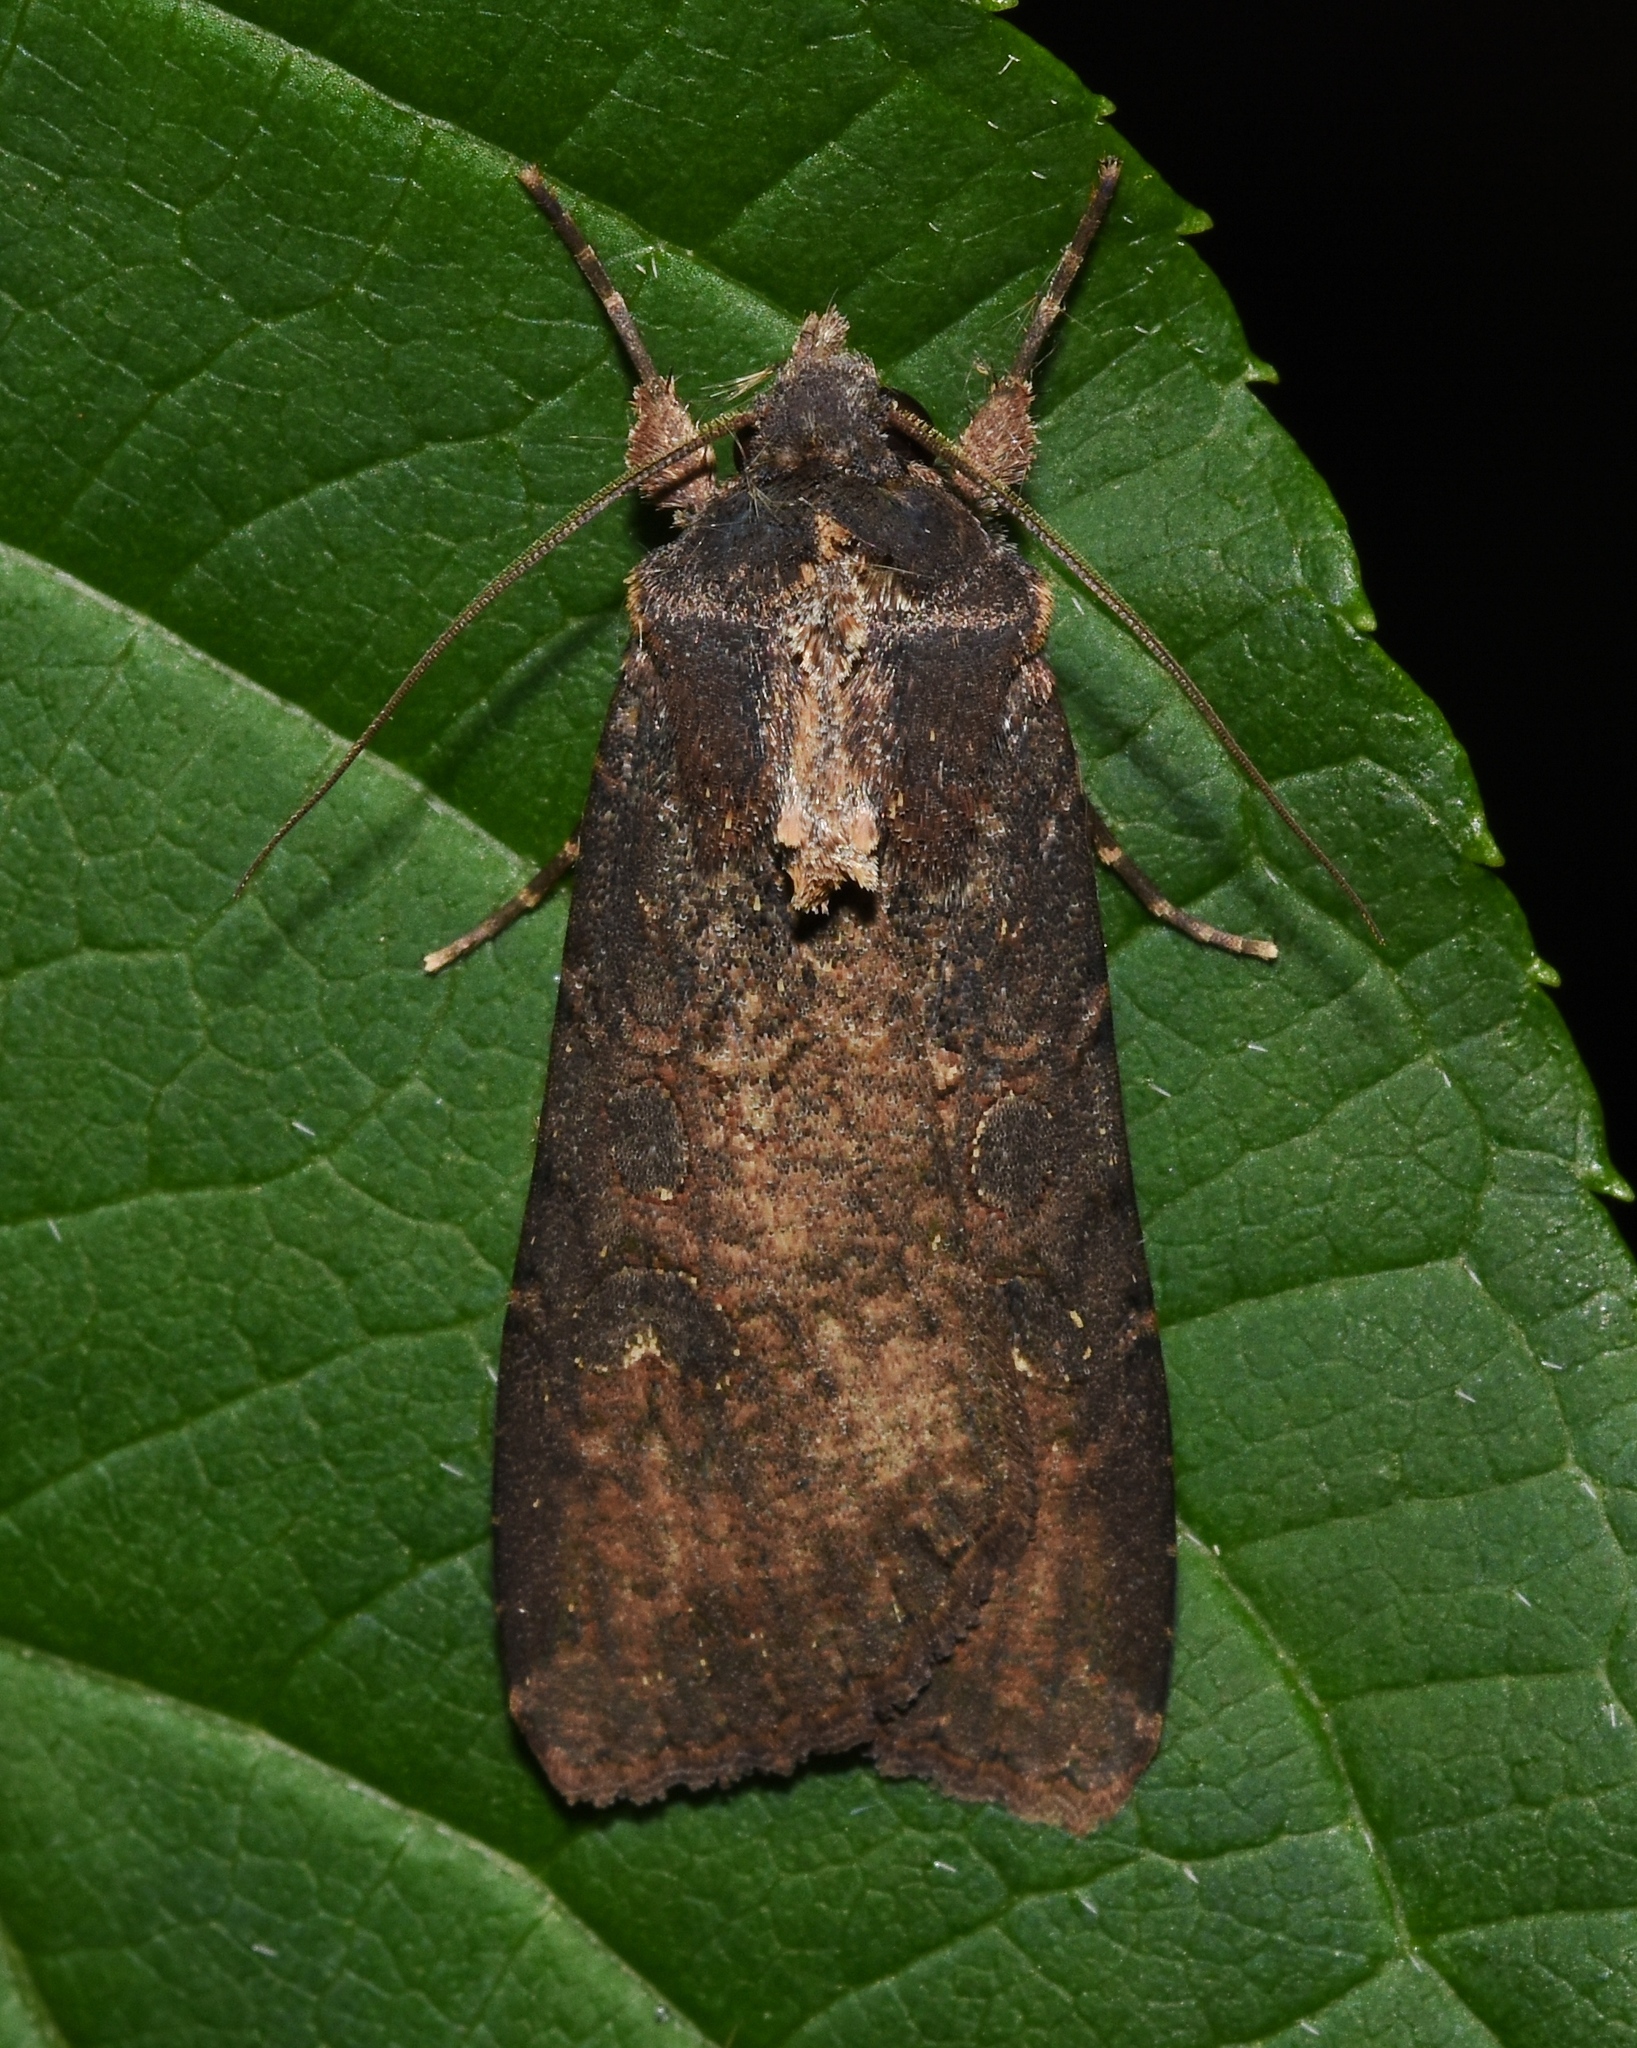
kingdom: Animalia
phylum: Arthropoda
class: Insecta
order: Lepidoptera
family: Noctuidae
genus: Peridroma
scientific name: Peridroma saucia
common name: Pearly underwing
